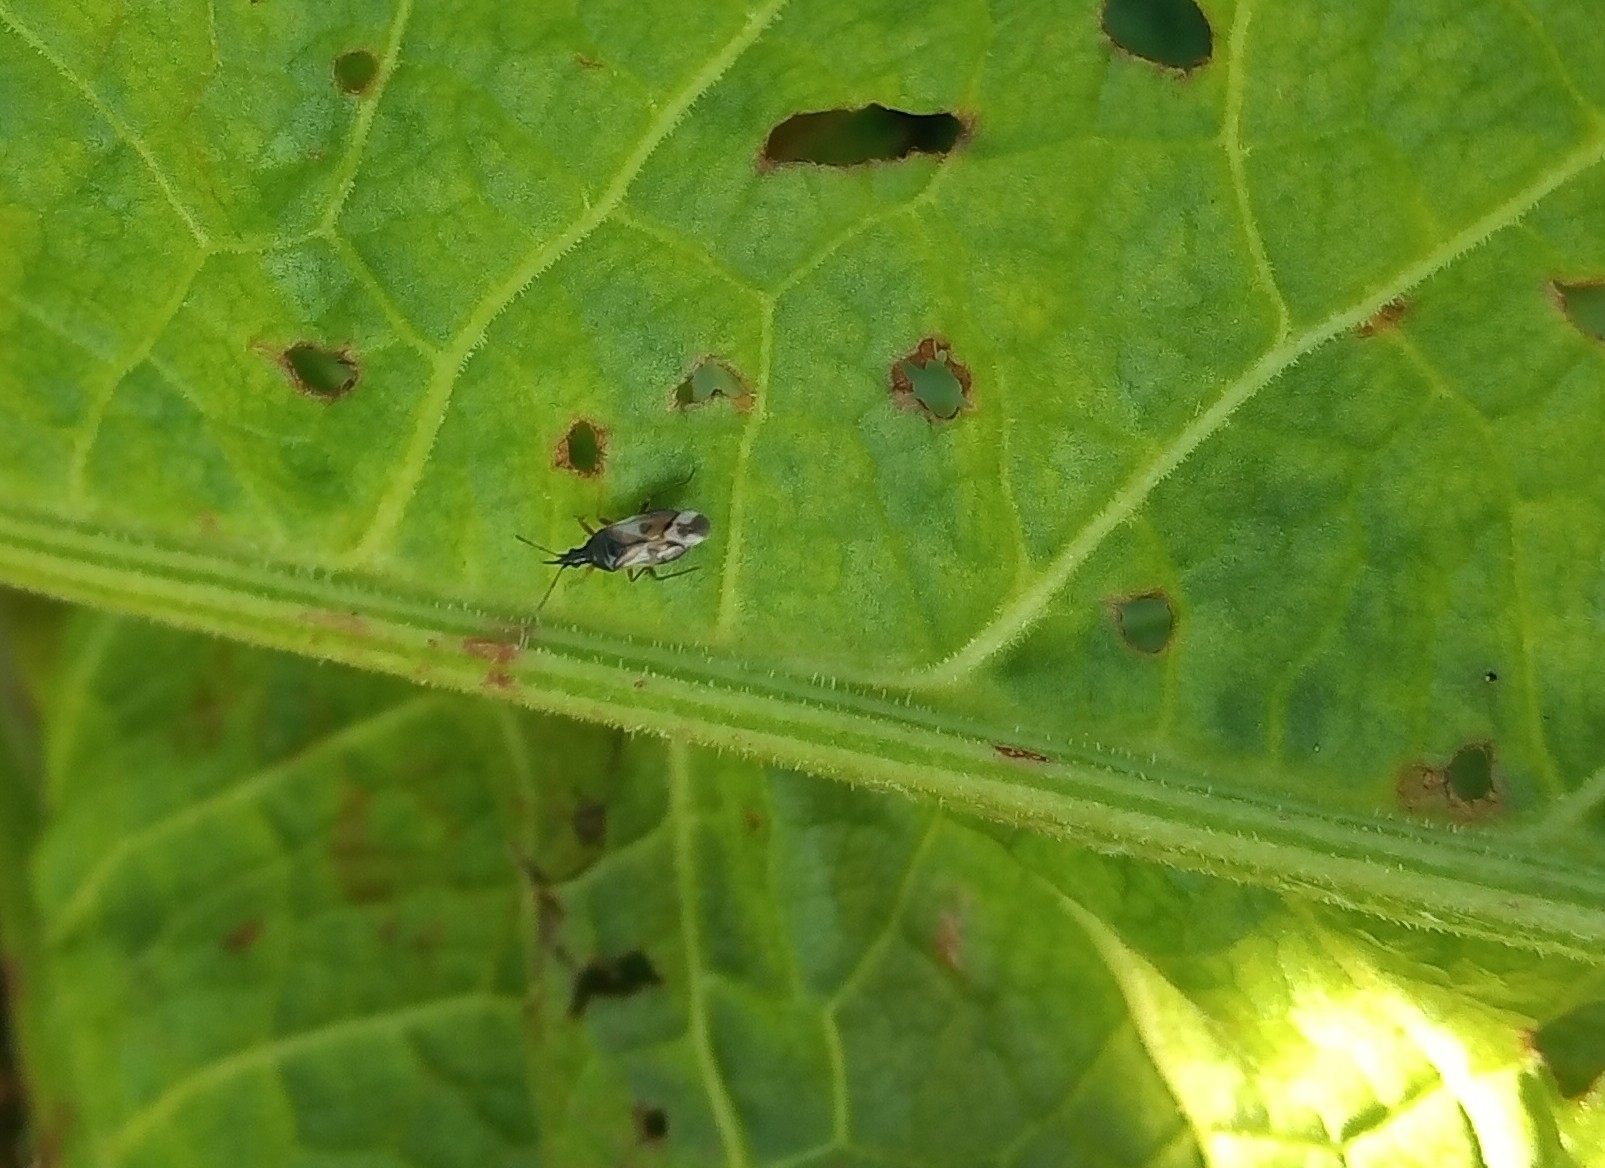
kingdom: Animalia
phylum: Arthropoda
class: Insecta
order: Hemiptera
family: Anthocoridae
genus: Anthocoris
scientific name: Anthocoris nemorum
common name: Minute pirate bug
